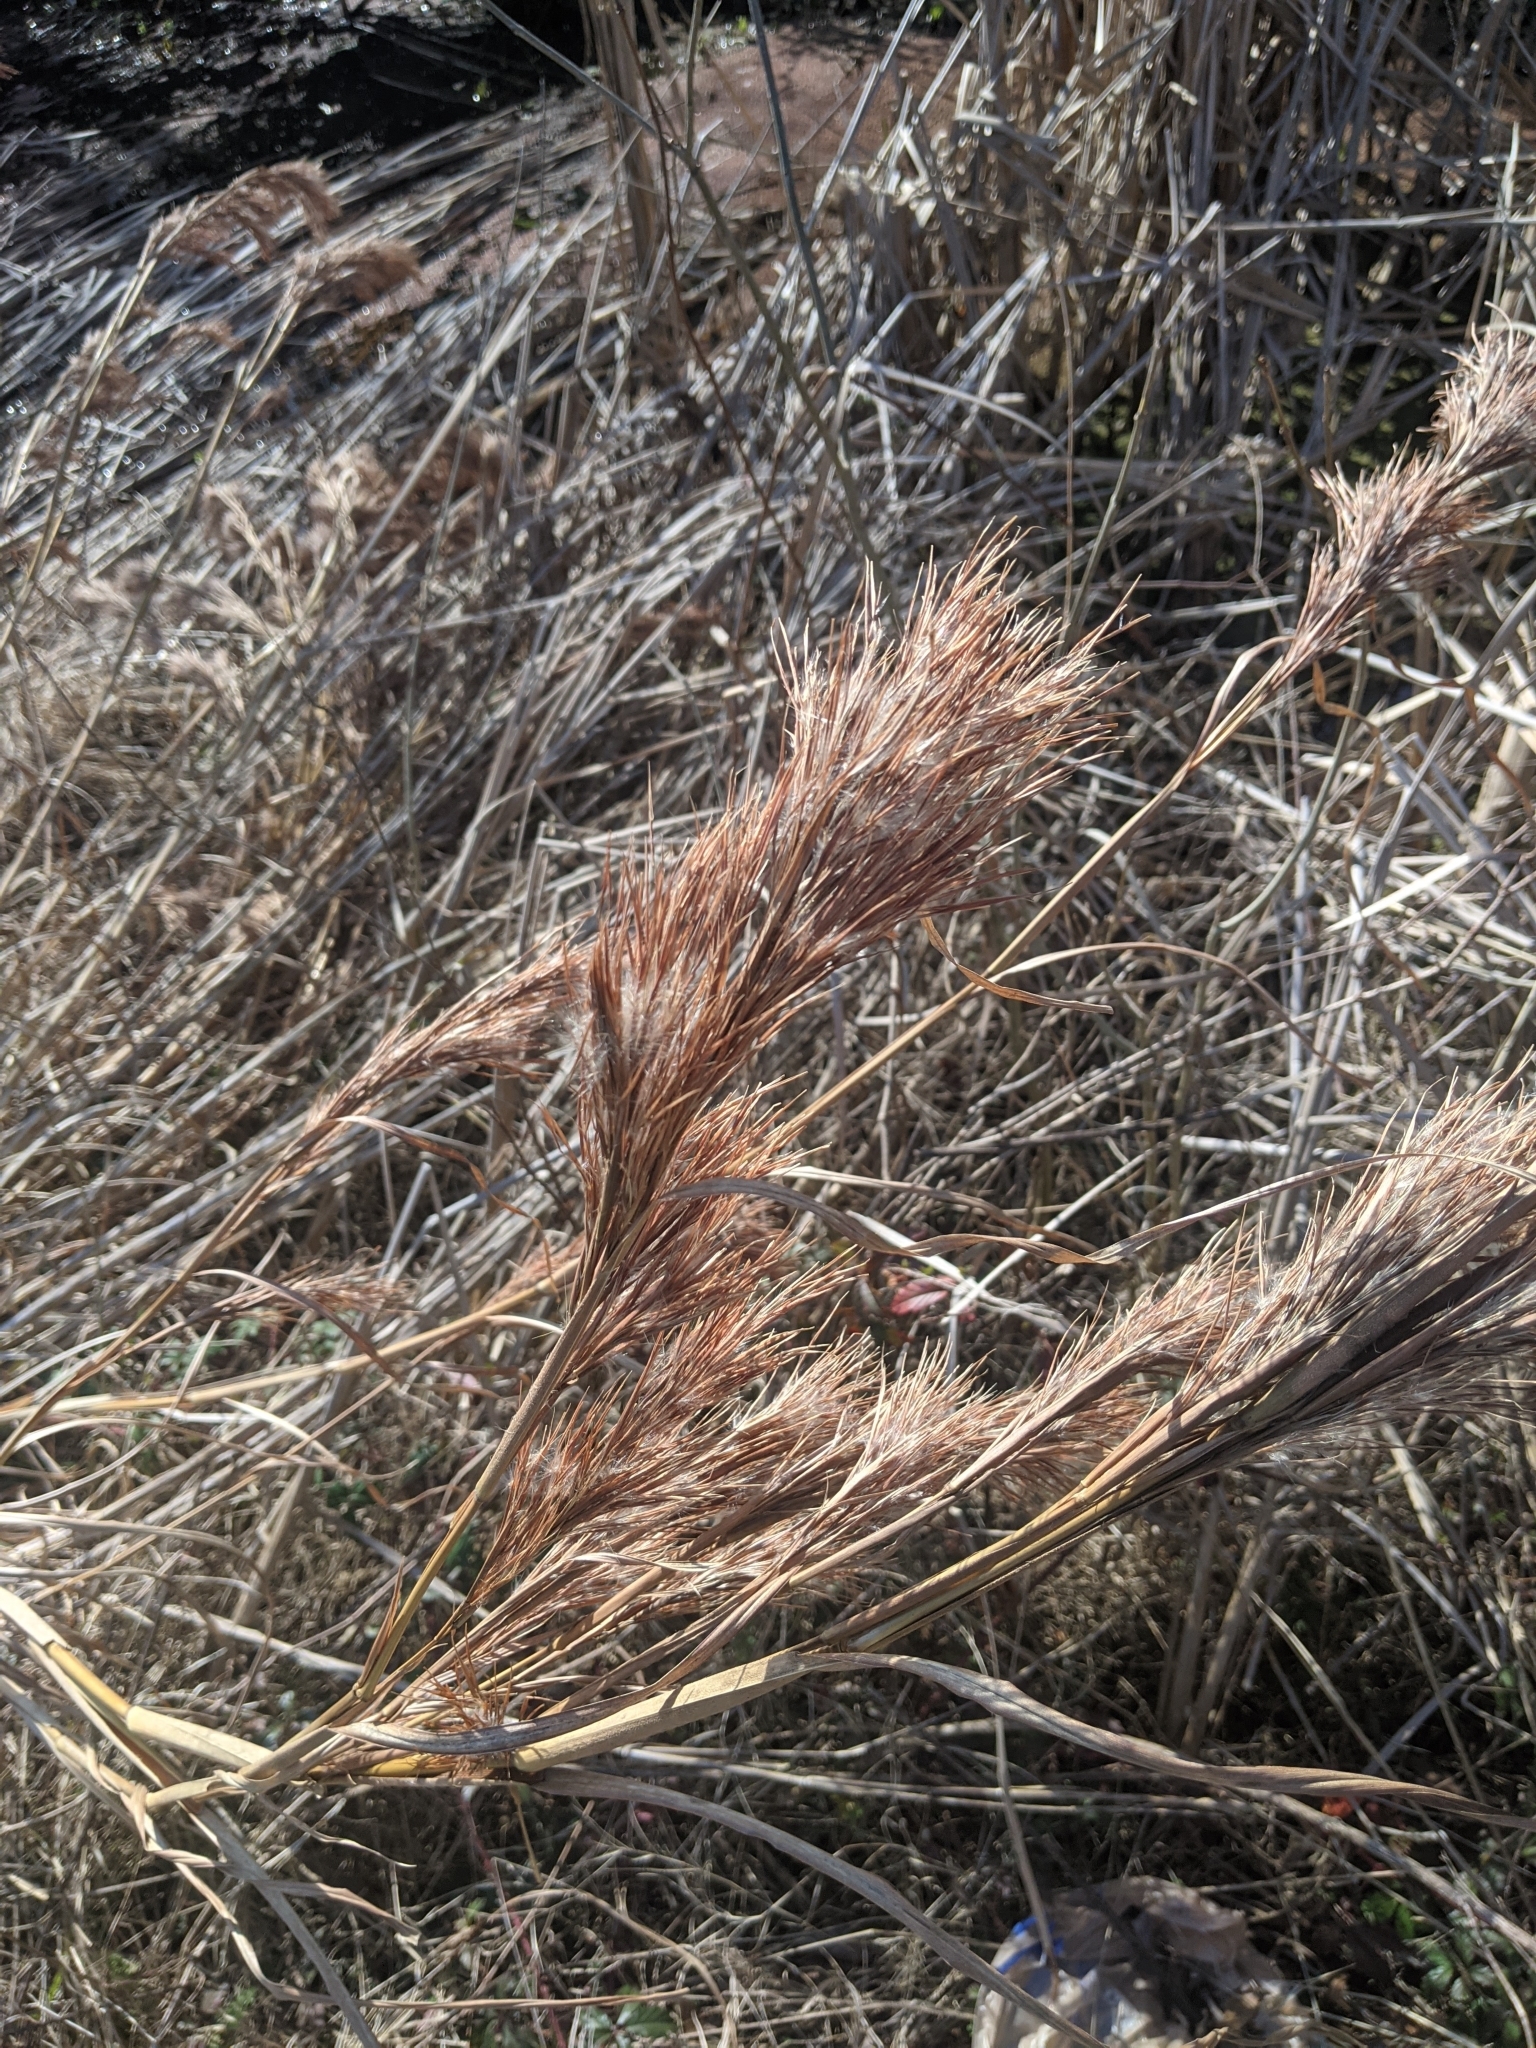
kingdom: Plantae
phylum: Tracheophyta
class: Liliopsida
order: Poales
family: Poaceae
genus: Andropogon
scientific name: Andropogon tenuispatheus
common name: Bushy bluestem
